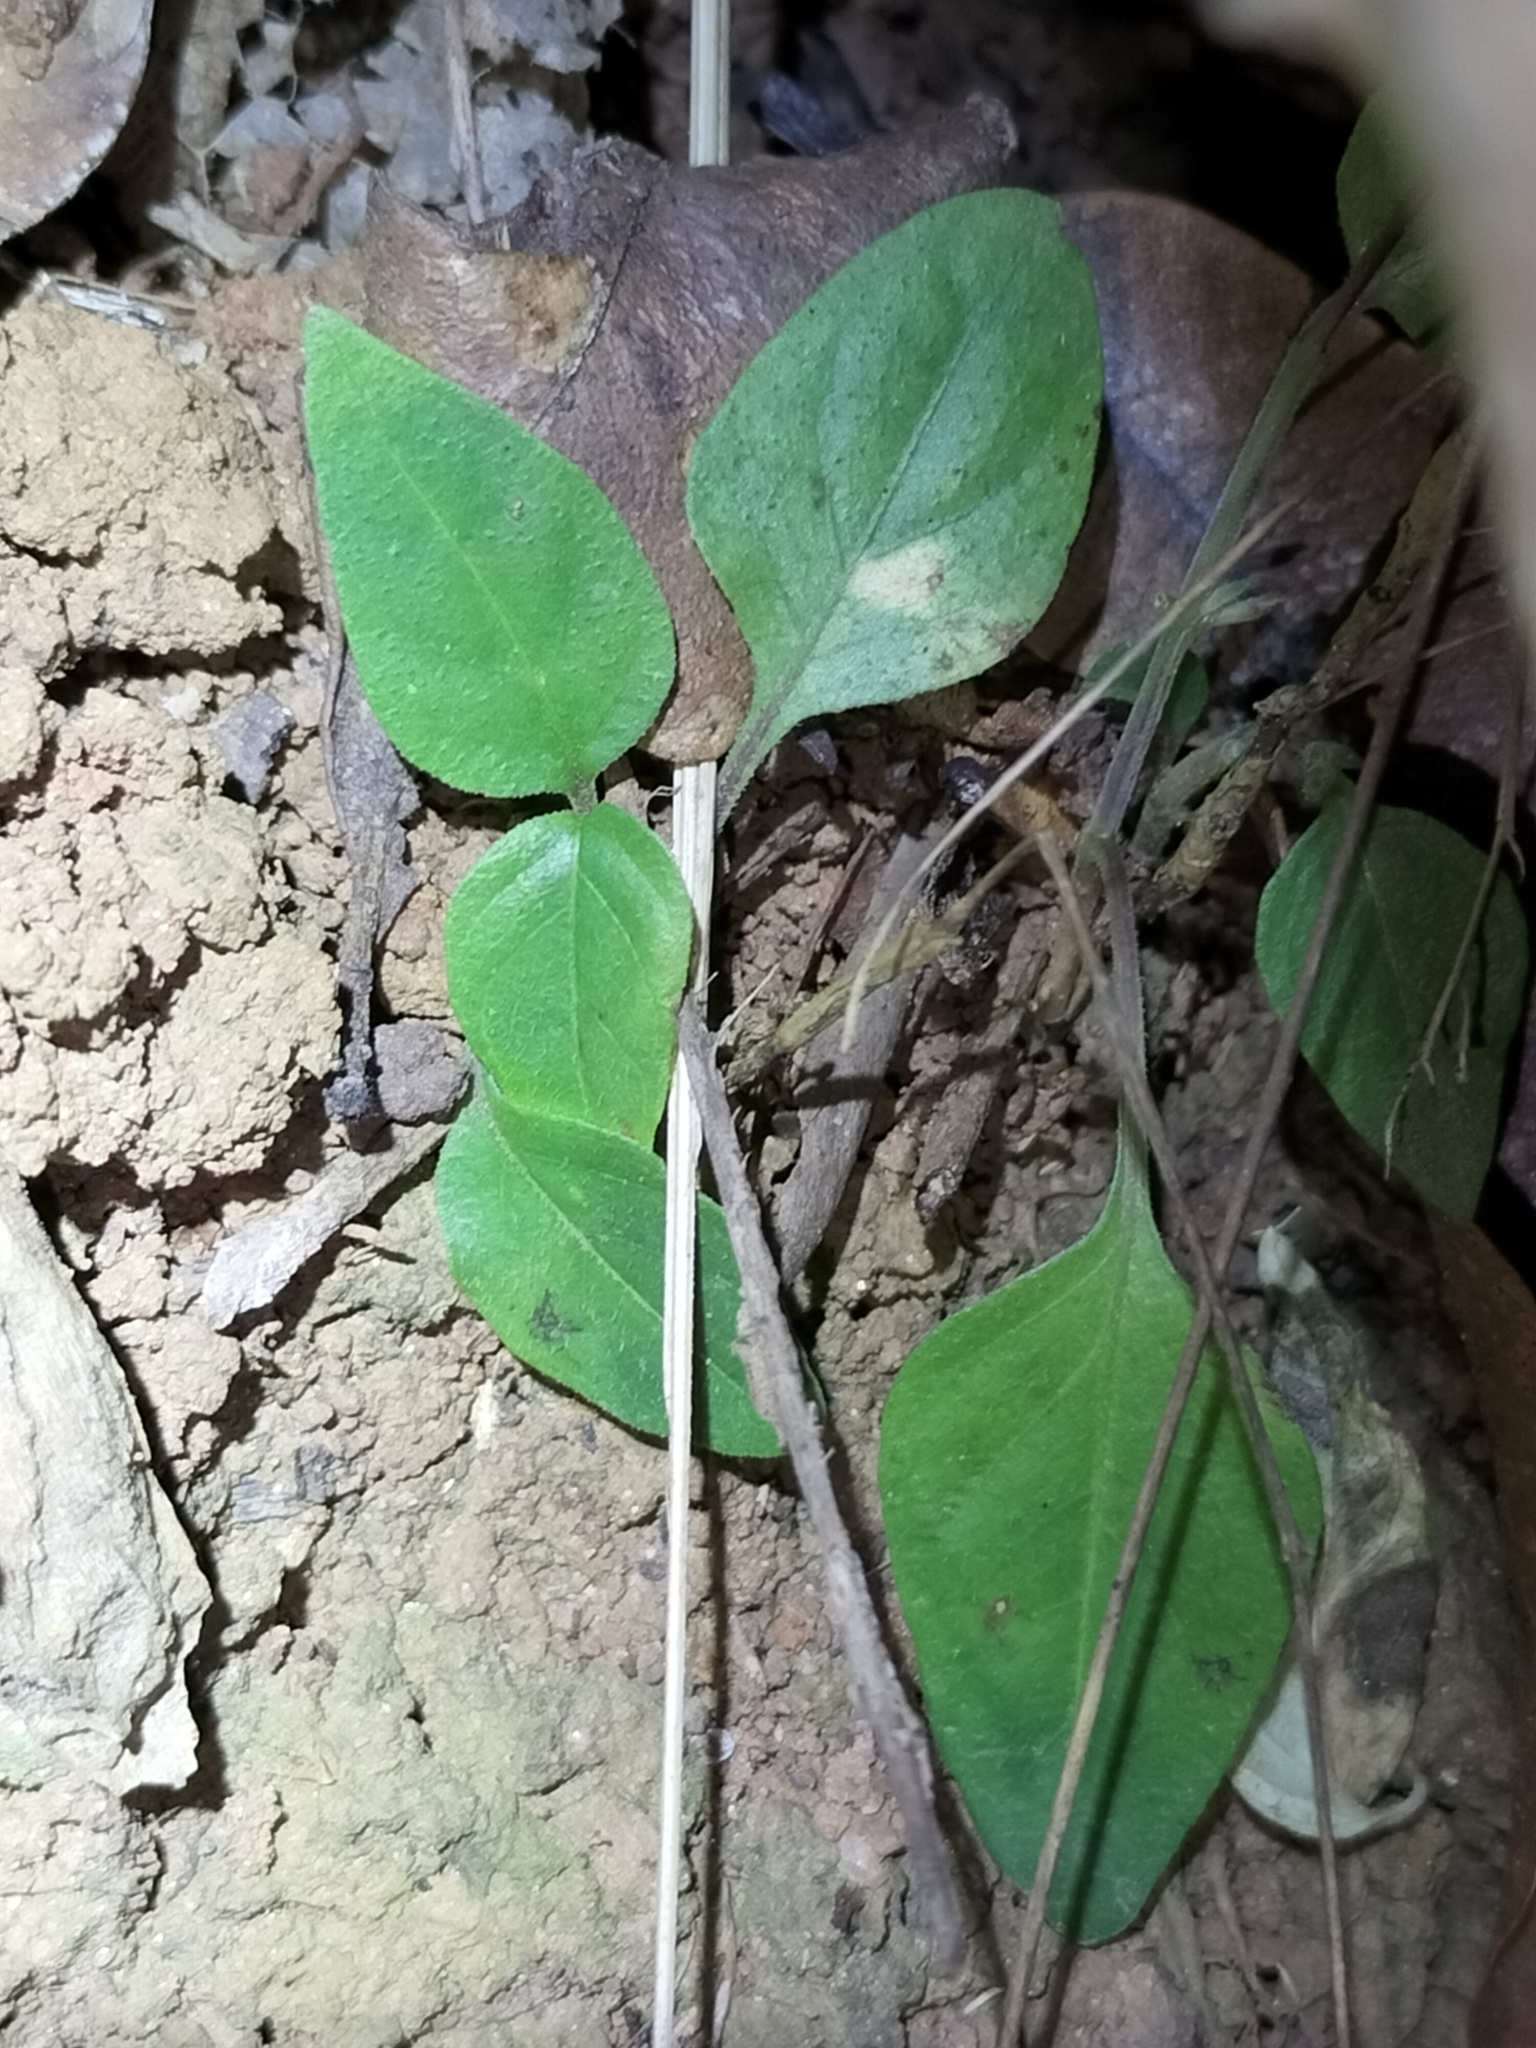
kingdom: Plantae
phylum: Tracheophyta
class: Magnoliopsida
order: Lamiales
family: Acanthaceae
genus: Pseuderanthemum
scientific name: Pseuderanthemum variabile
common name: Night and afternoon
